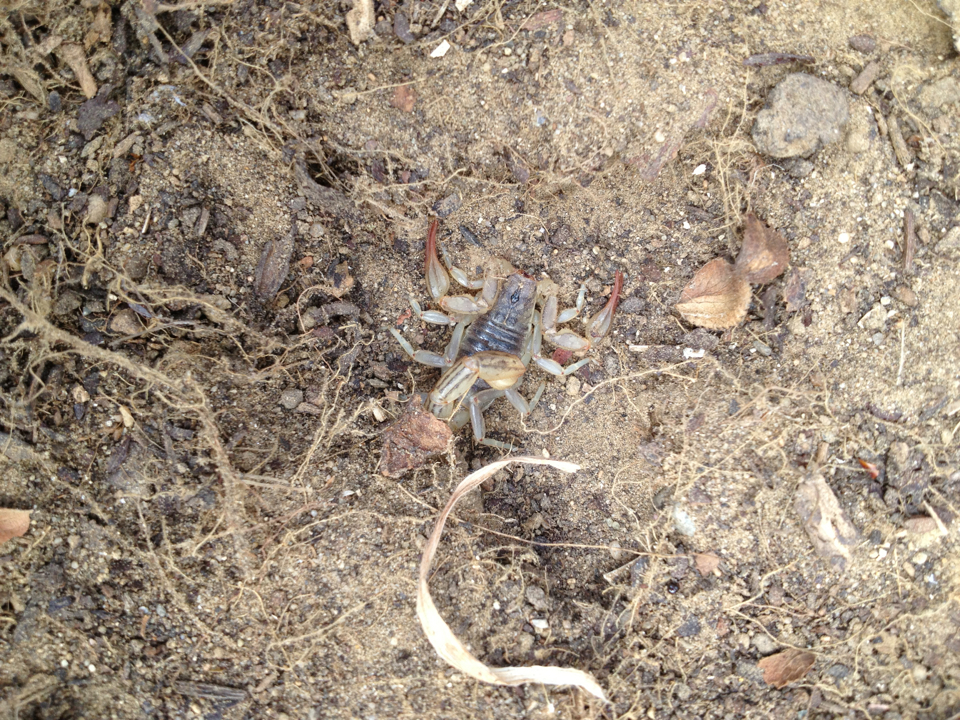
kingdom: Animalia
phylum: Arthropoda
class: Arachnida
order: Scorpiones
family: Vaejovidae
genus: Paruroctonus
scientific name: Paruroctonus silvestrii
